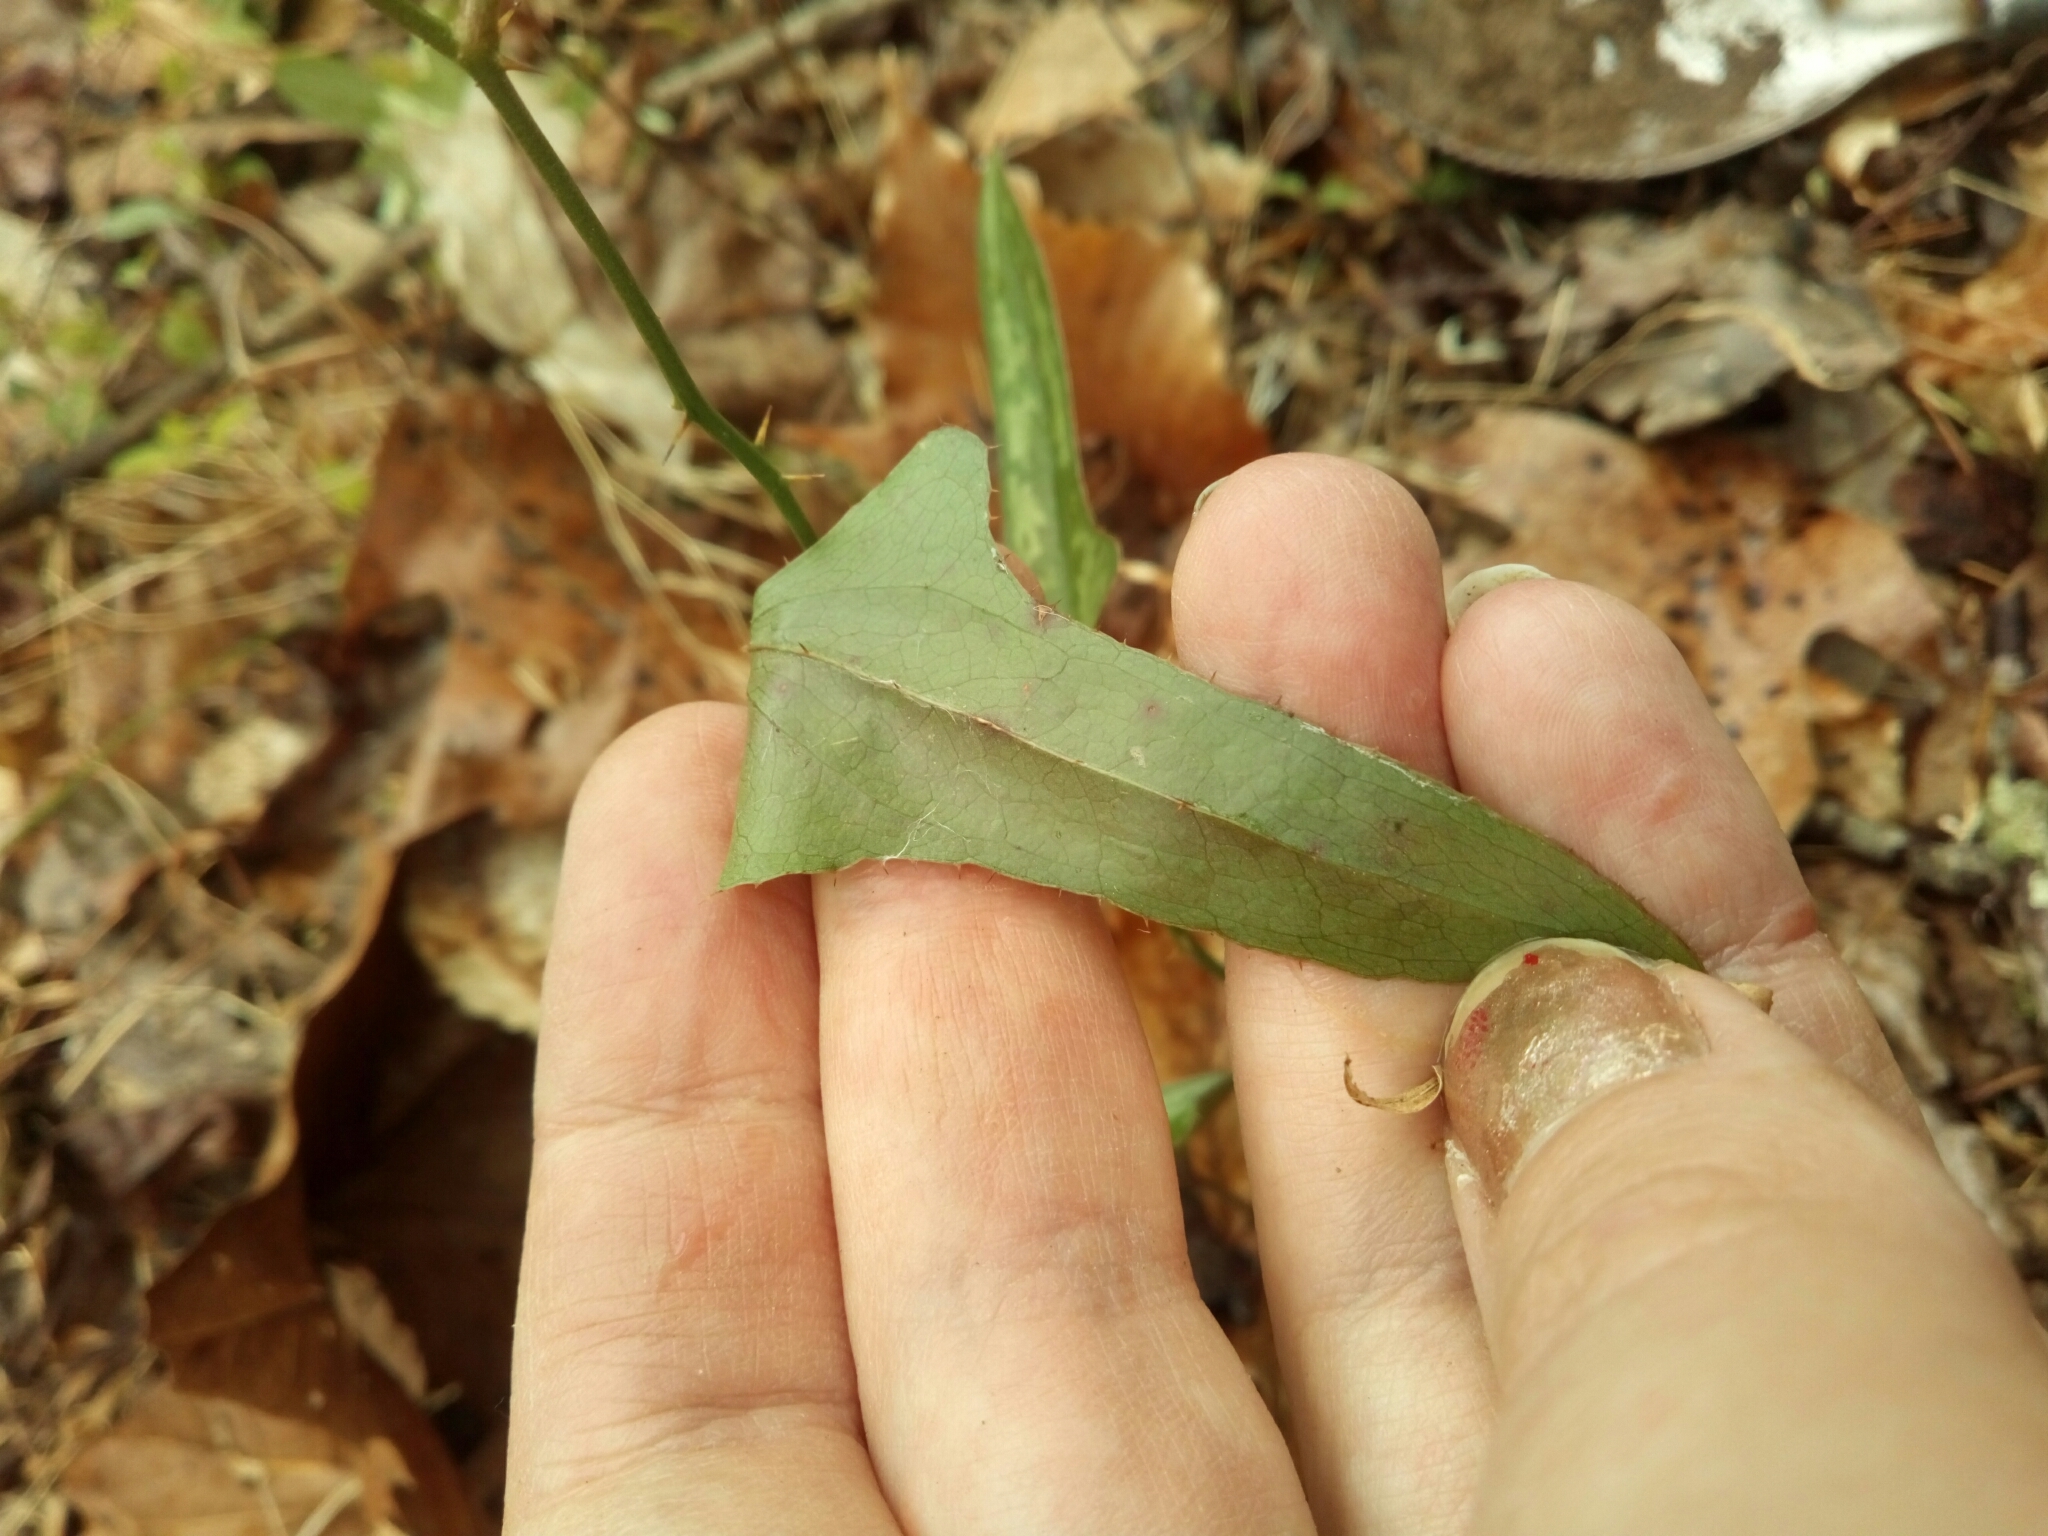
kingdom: Plantae
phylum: Tracheophyta
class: Liliopsida
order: Liliales
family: Smilacaceae
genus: Smilax
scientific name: Smilax bona-nox
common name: Catbrier
